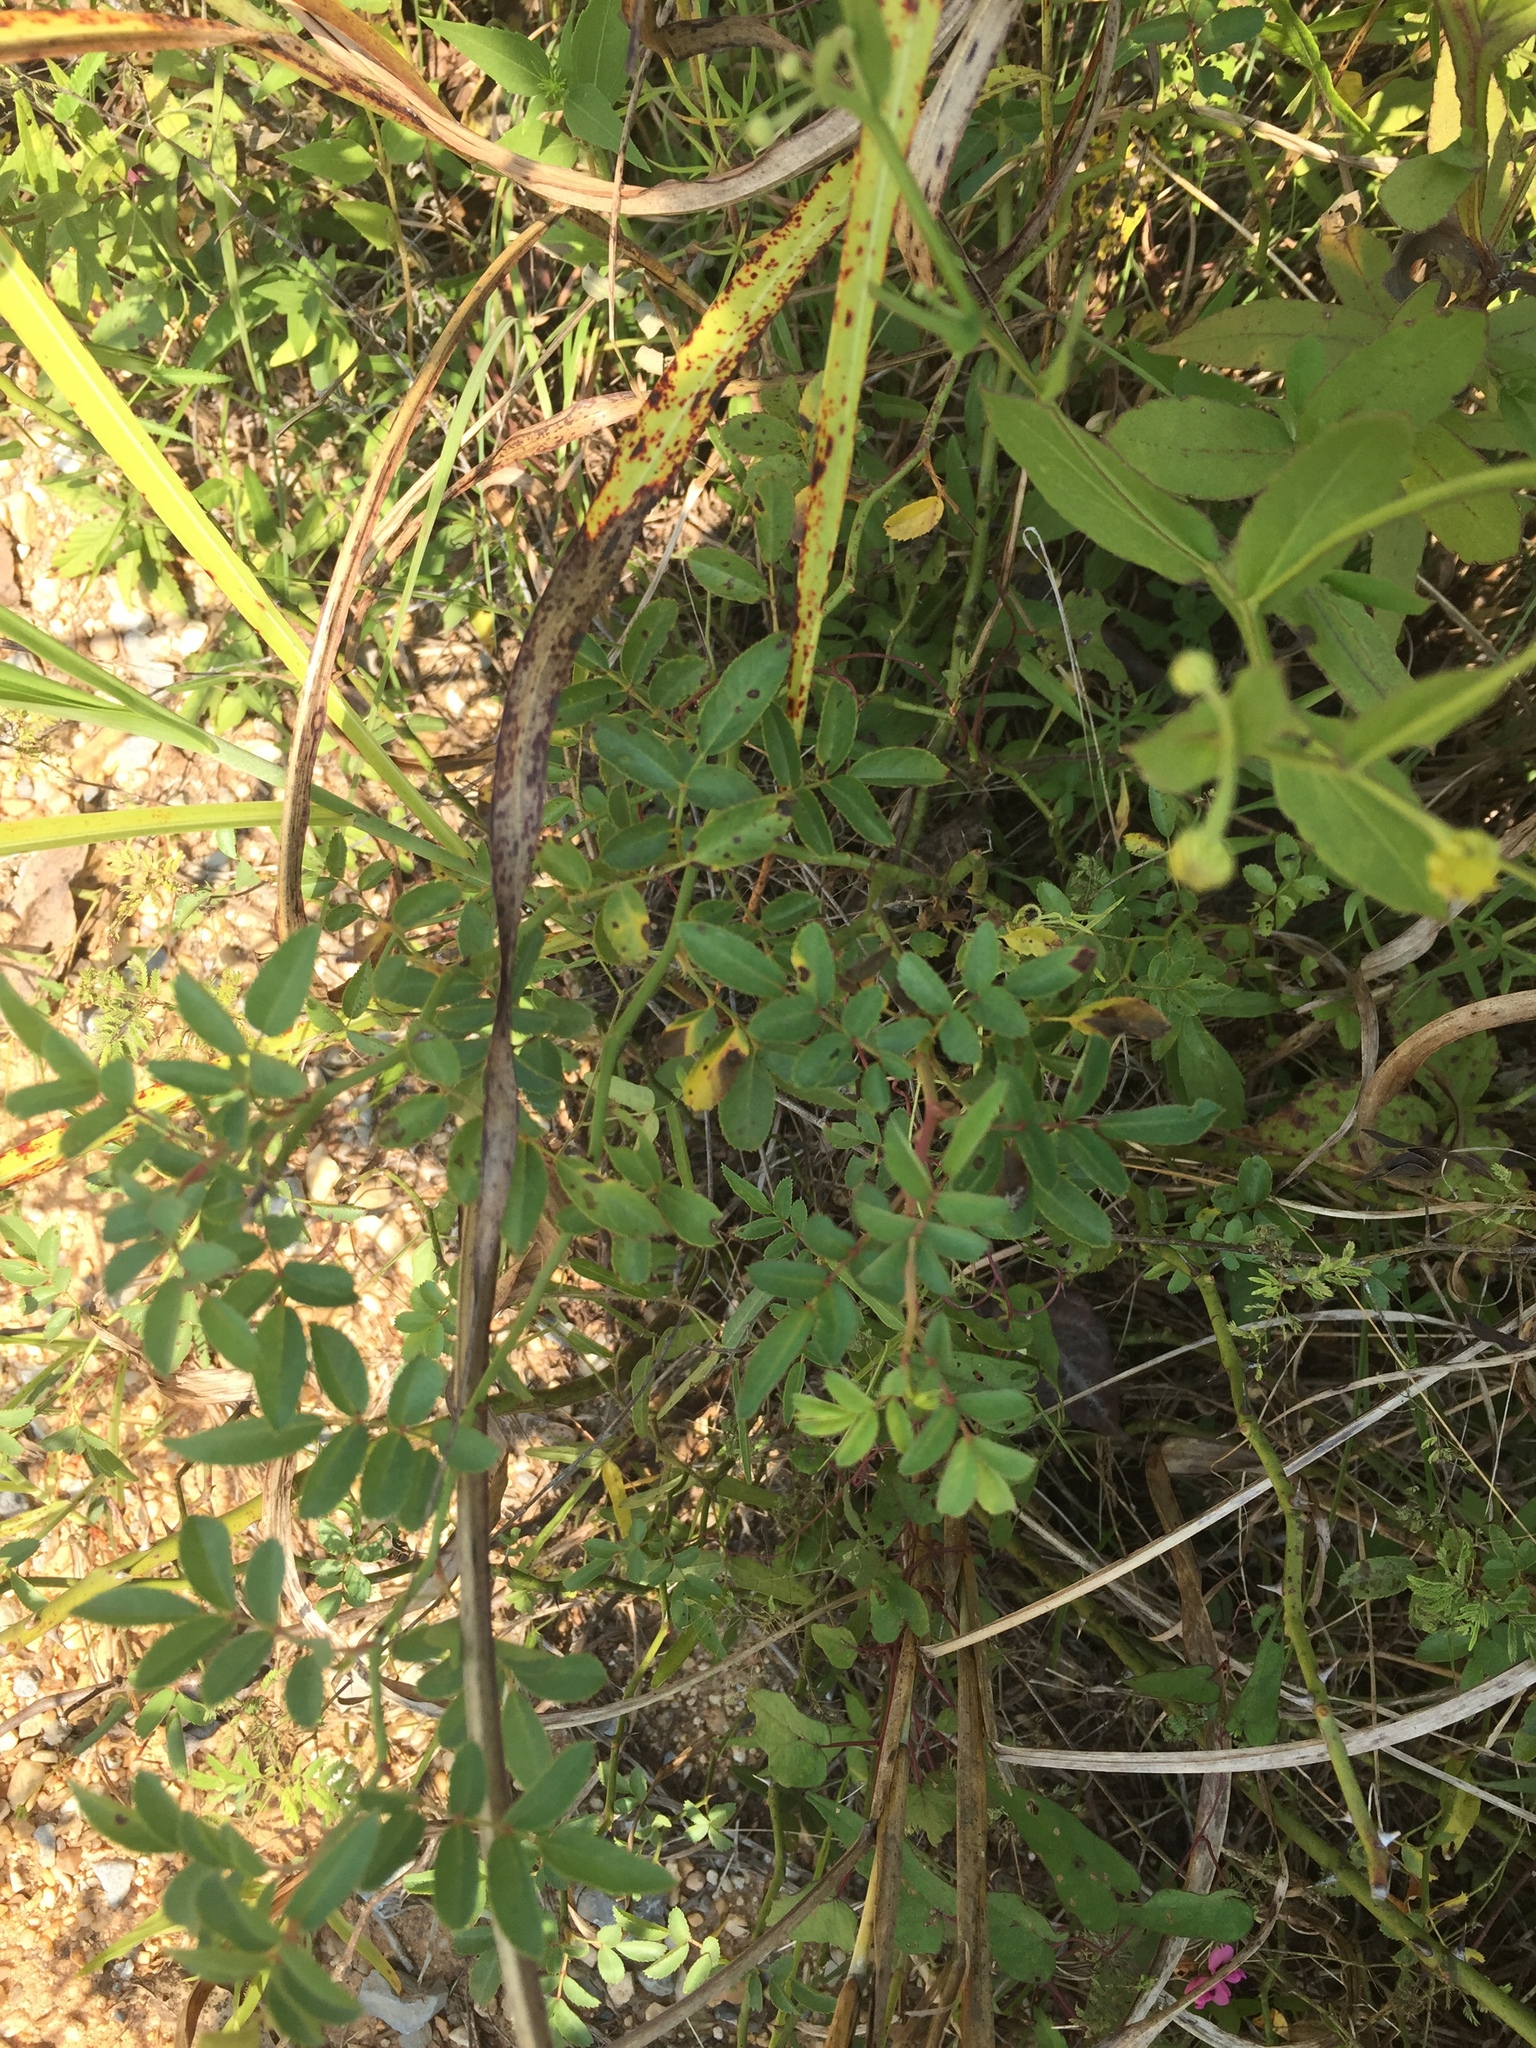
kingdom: Plantae
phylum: Tracheophyta
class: Magnoliopsida
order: Rosales
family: Rosaceae
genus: Rosa
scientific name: Rosa multiflora
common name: Multiflora rose
